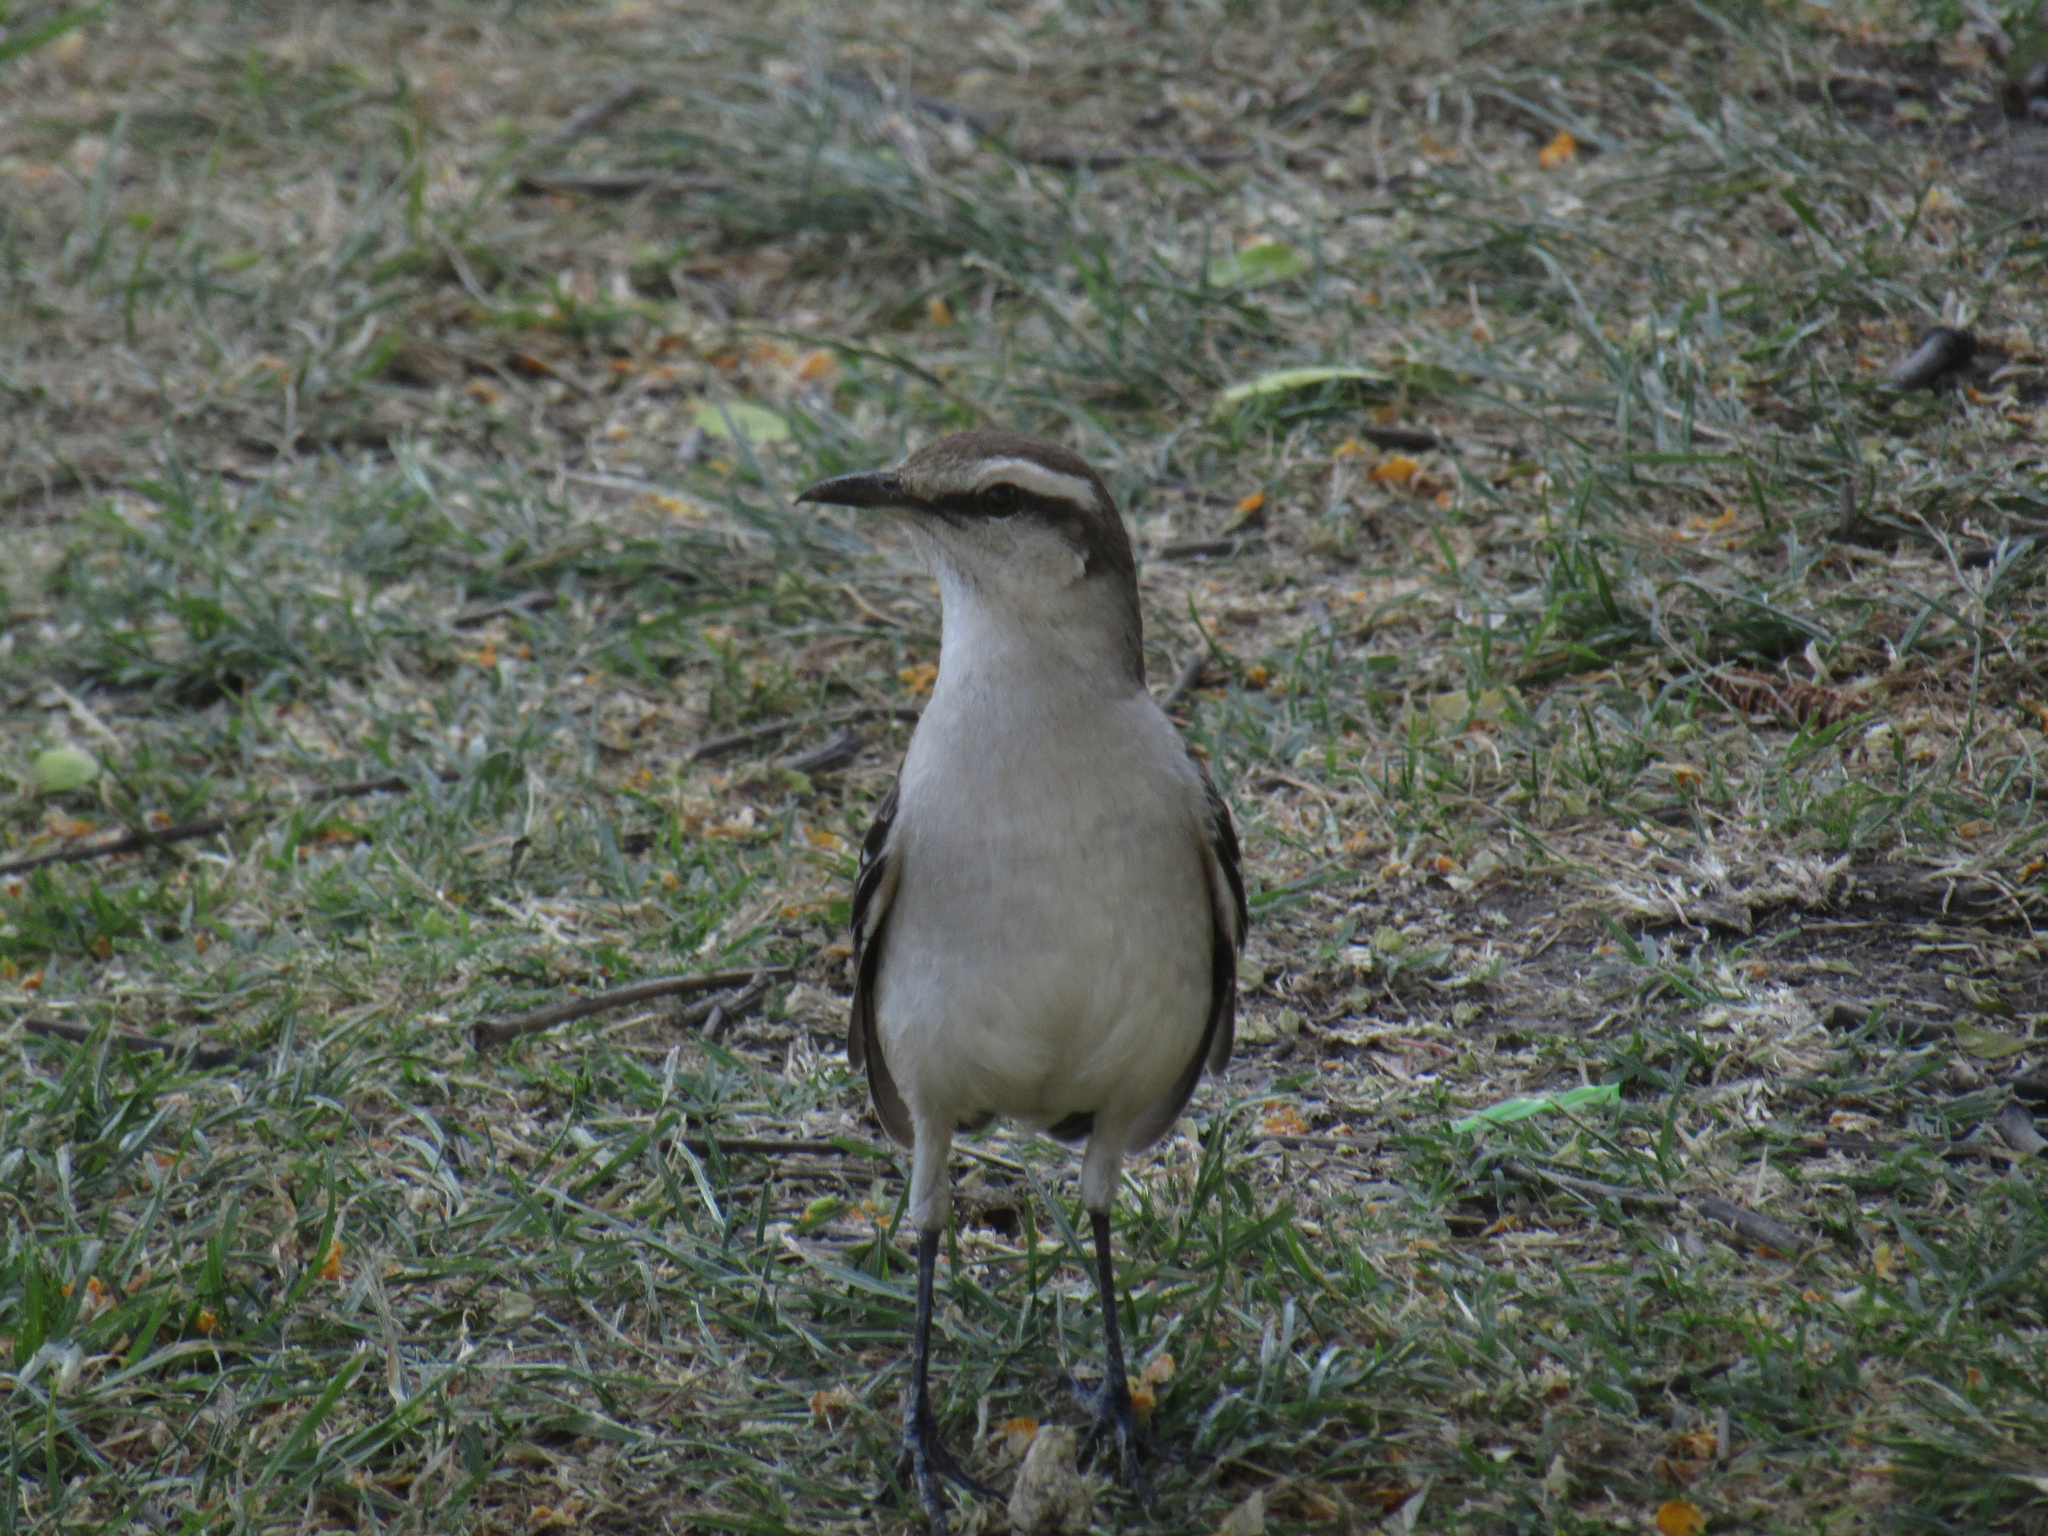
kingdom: Animalia
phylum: Chordata
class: Aves
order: Passeriformes
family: Mimidae
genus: Mimus
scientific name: Mimus saturninus
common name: Chalk-browed mockingbird
